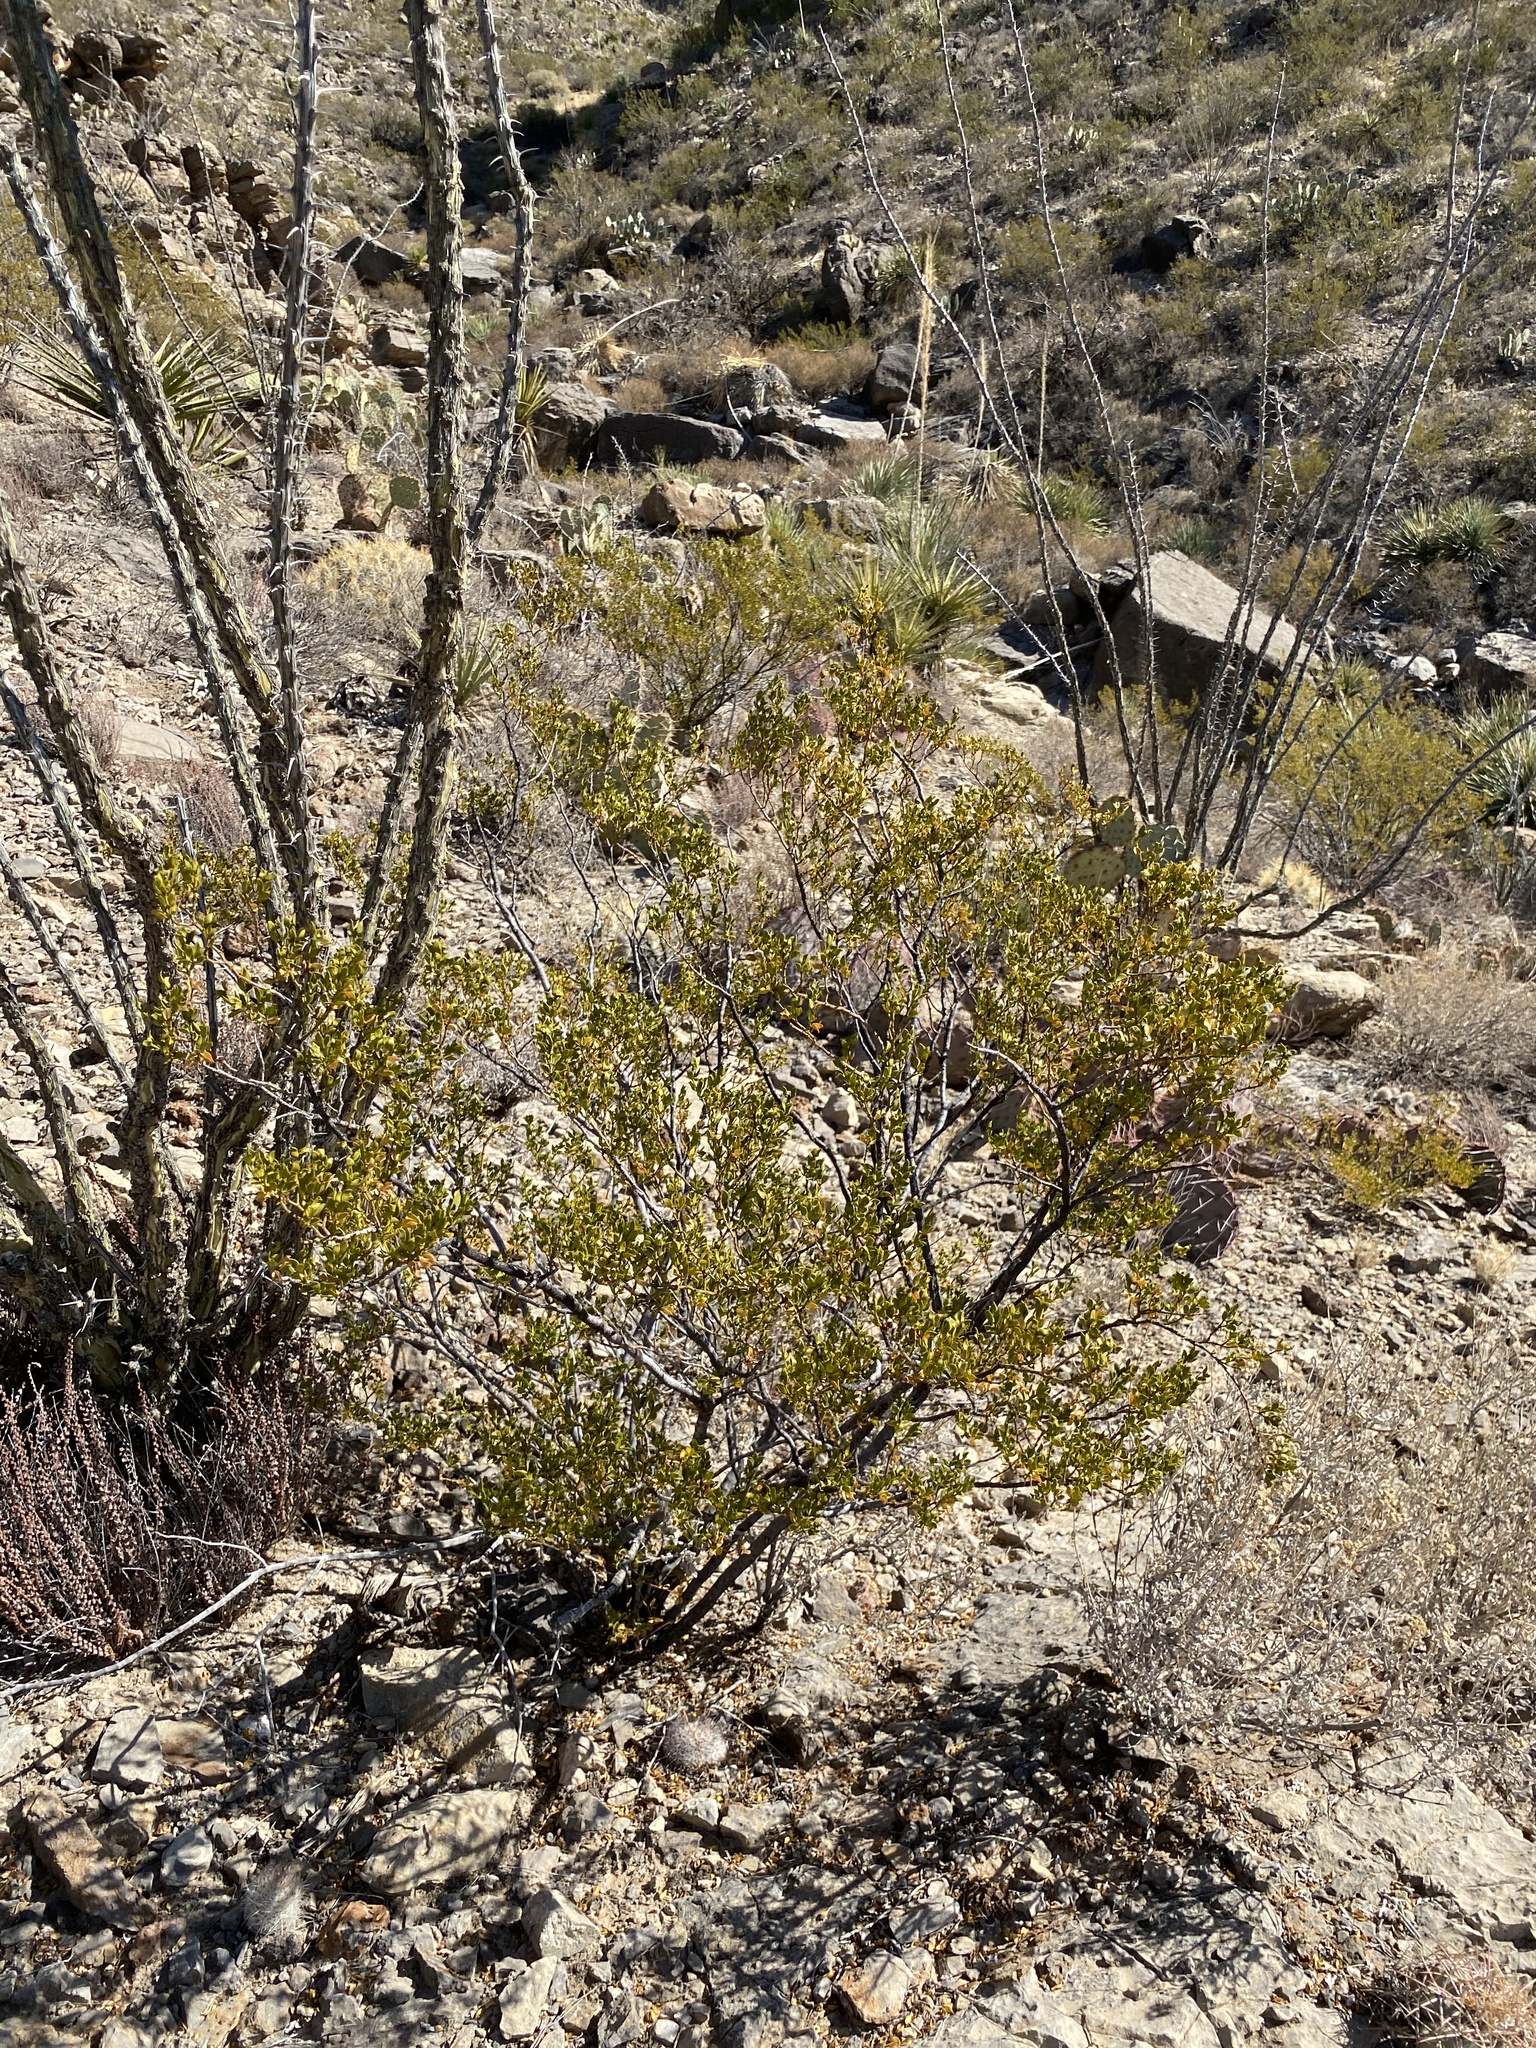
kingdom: Plantae
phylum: Tracheophyta
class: Magnoliopsida
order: Zygophyllales
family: Zygophyllaceae
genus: Larrea
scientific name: Larrea tridentata
